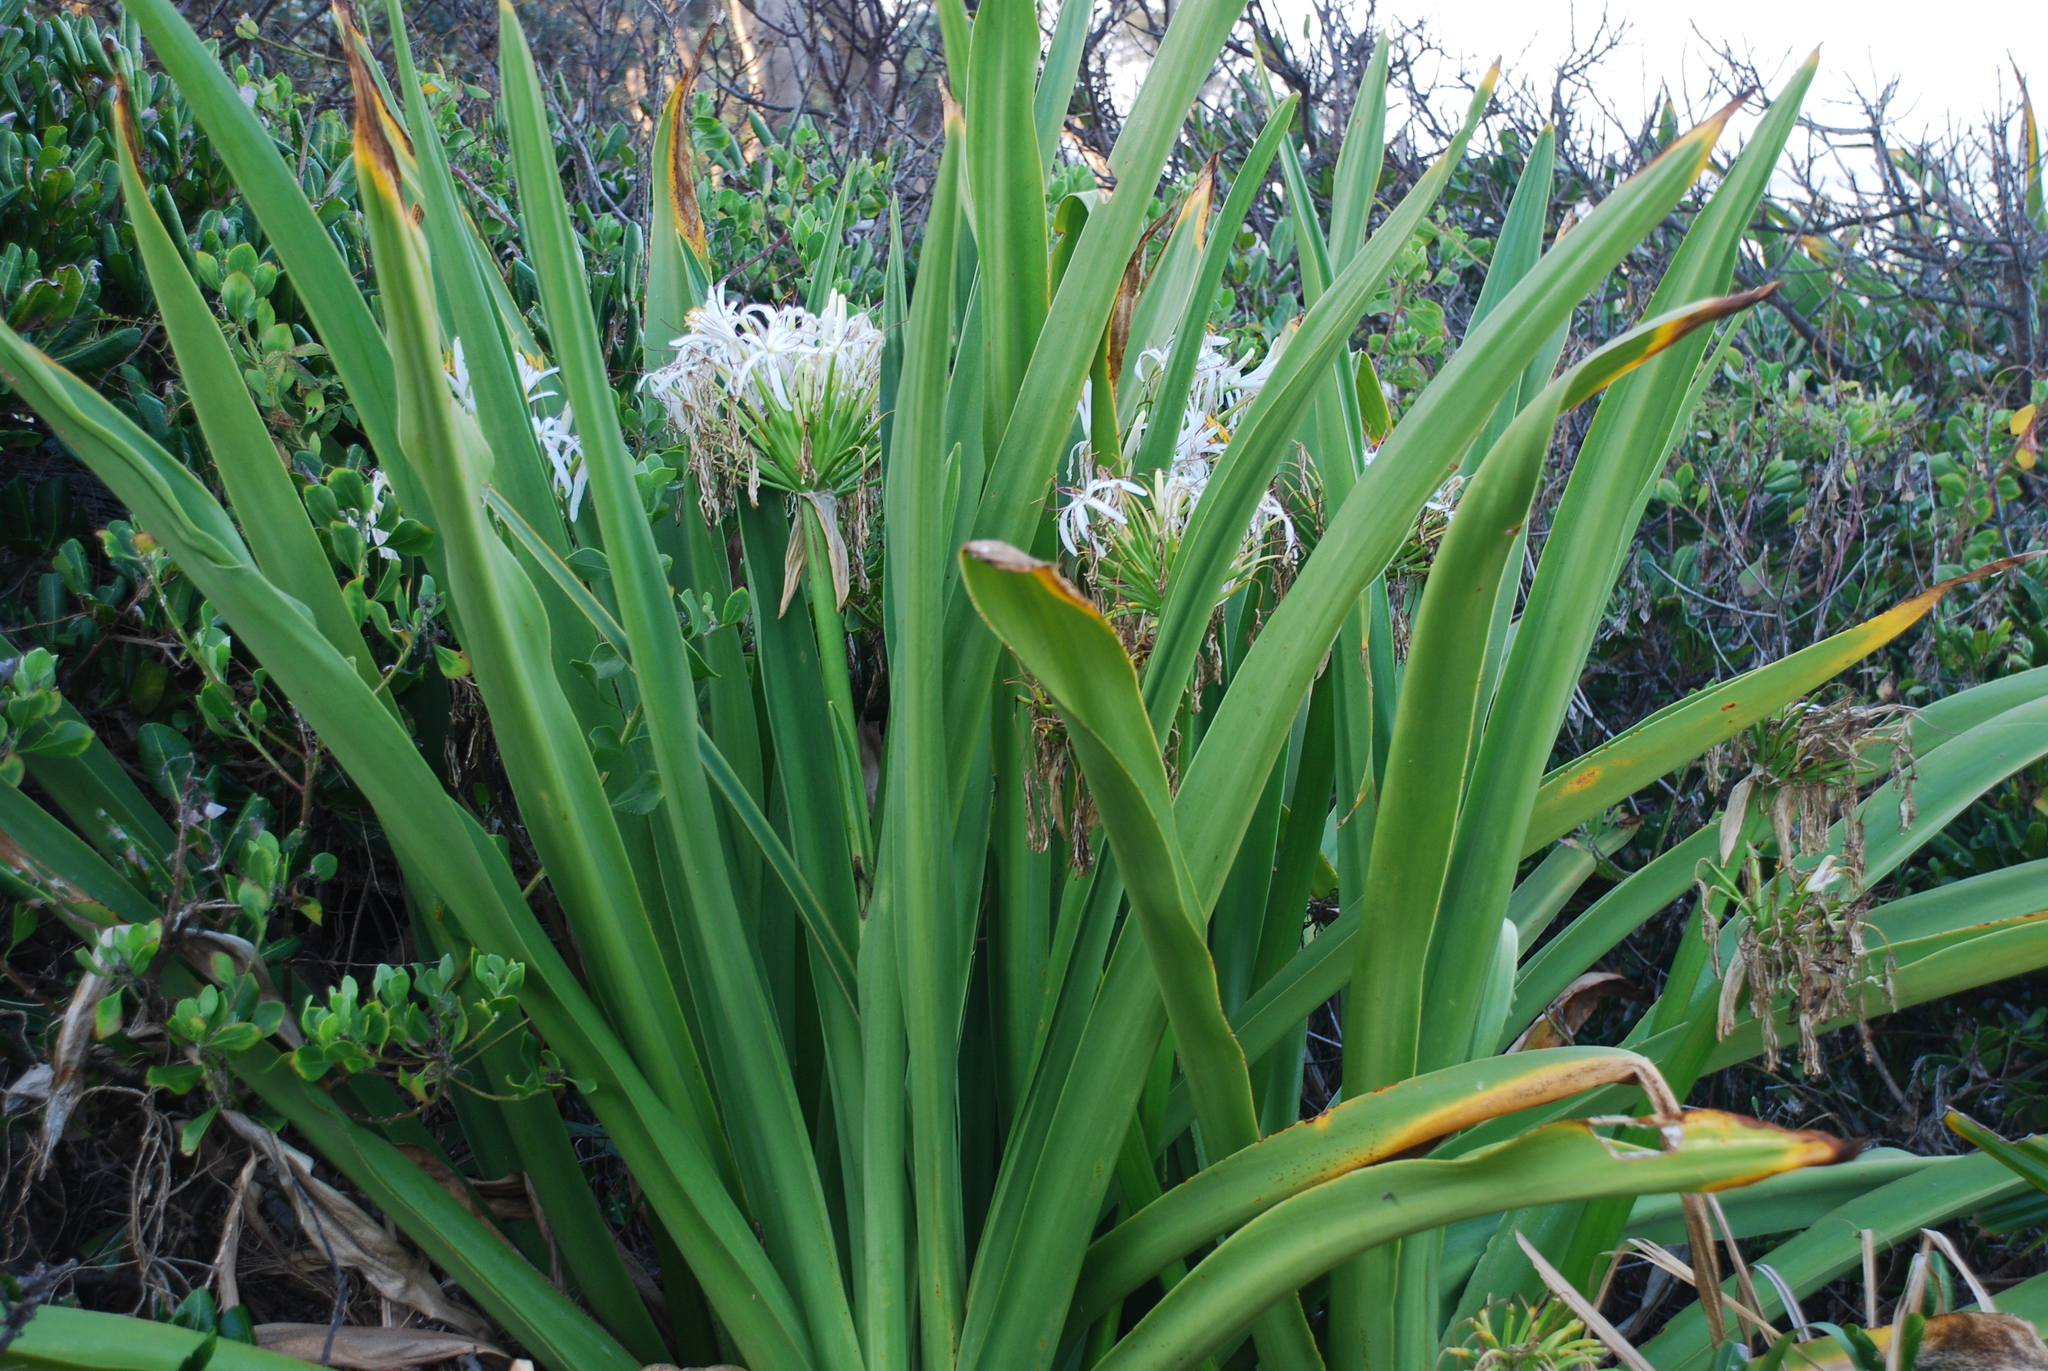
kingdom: Plantae
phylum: Tracheophyta
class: Liliopsida
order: Asparagales
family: Amaryllidaceae
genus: Crinum
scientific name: Crinum pedunculatum
